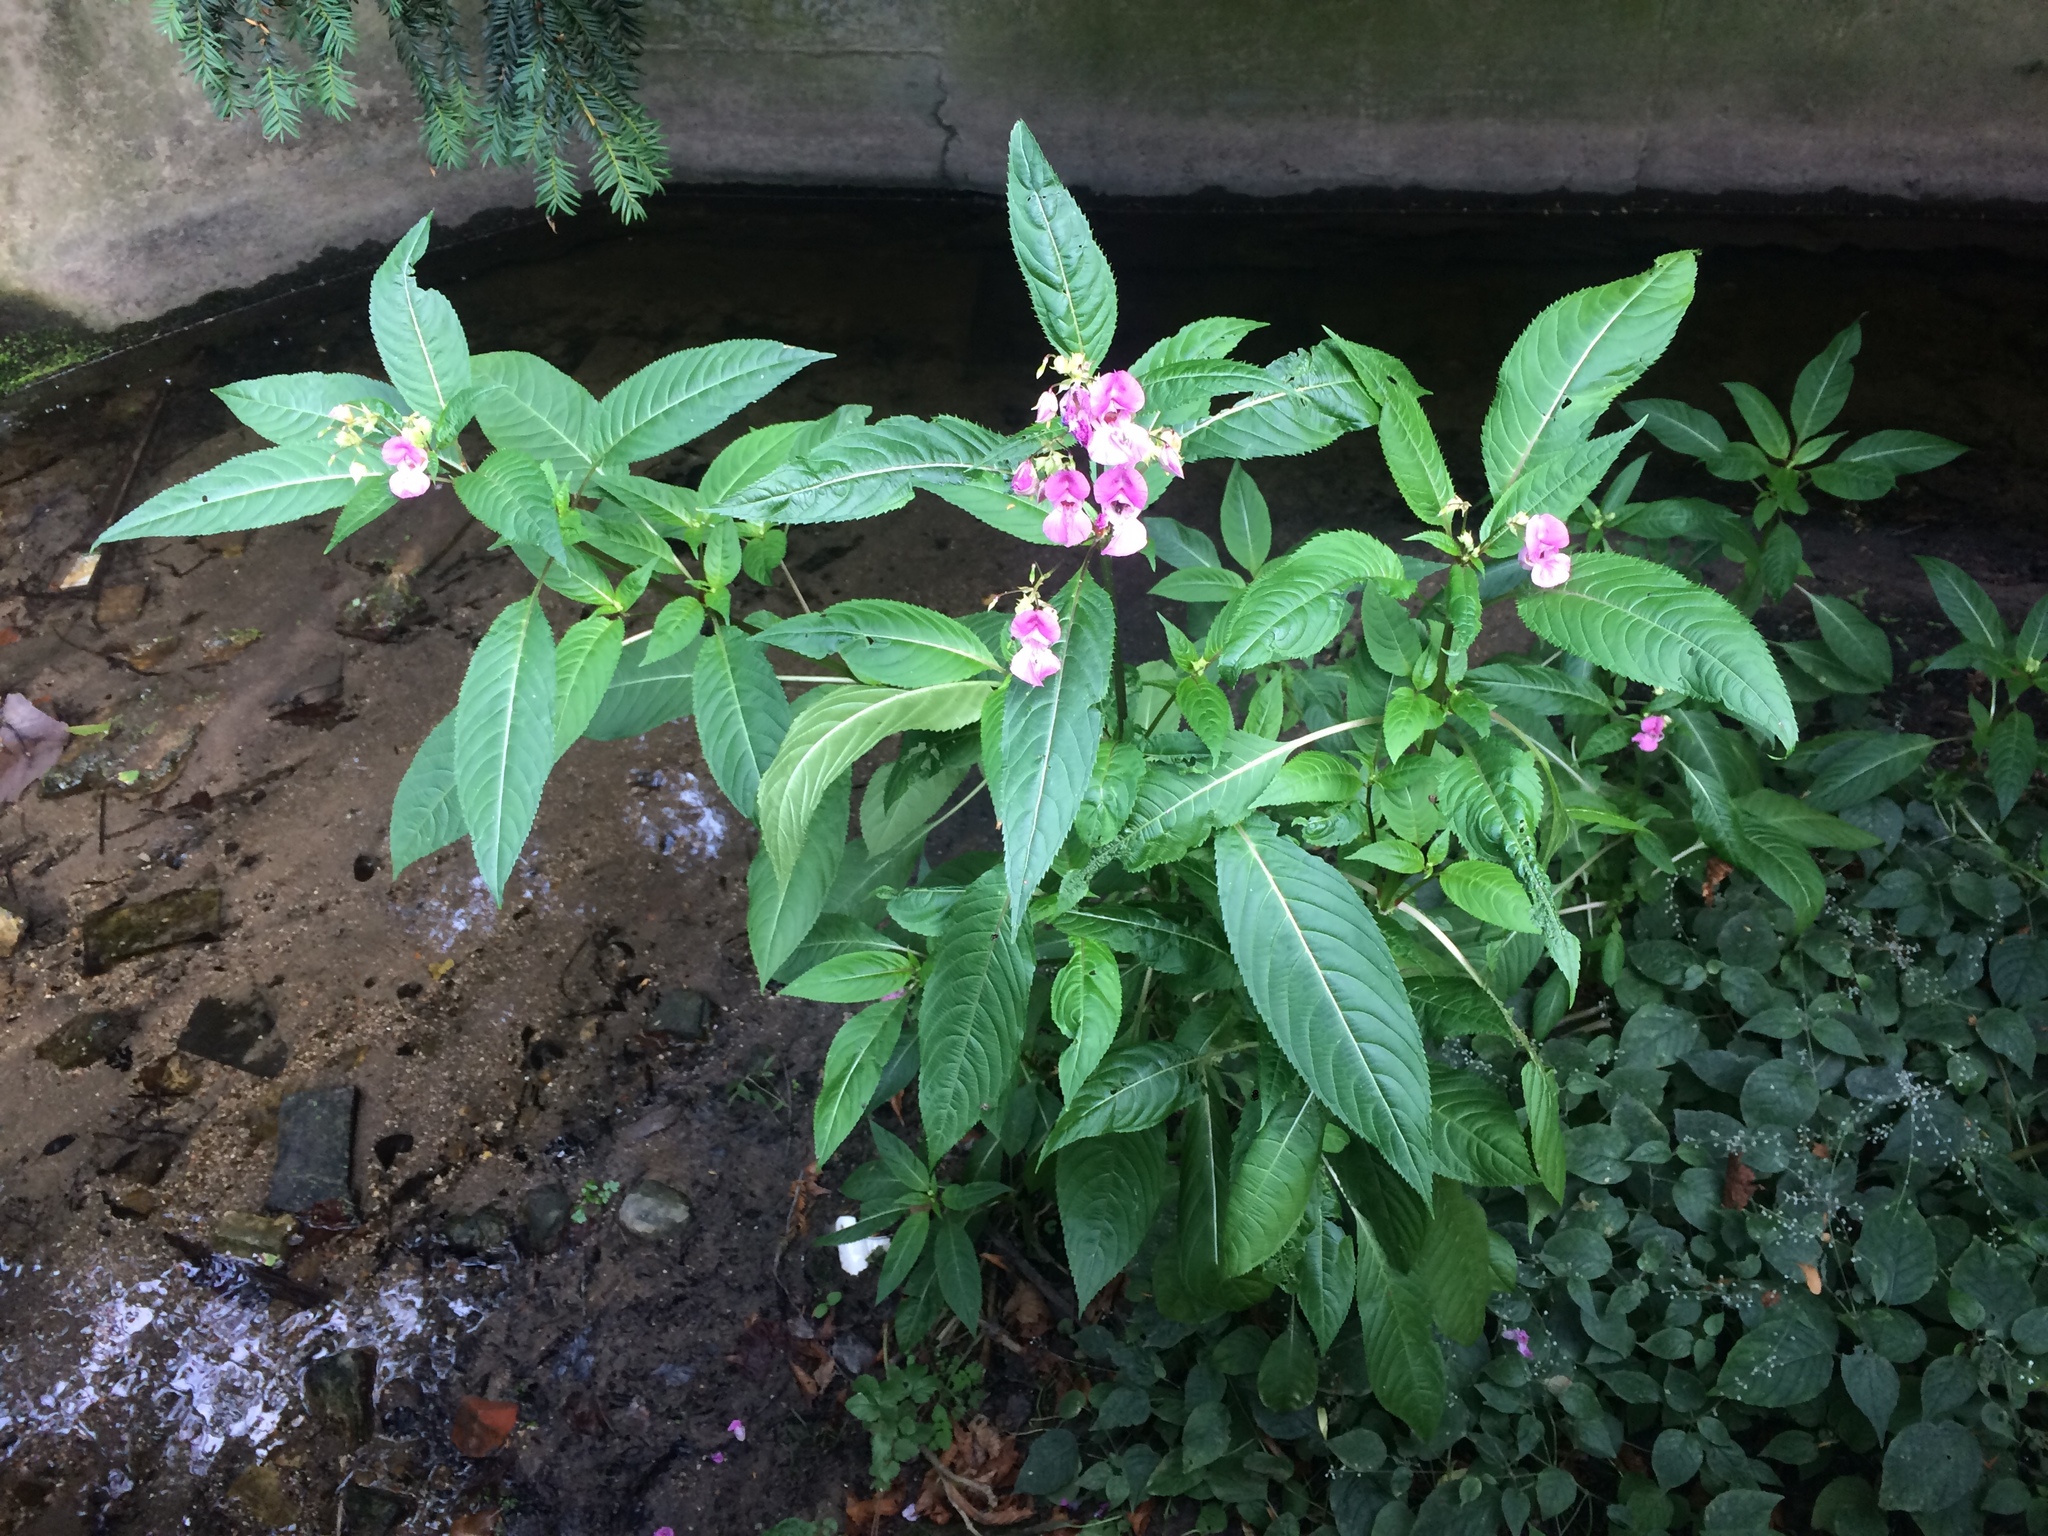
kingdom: Plantae
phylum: Tracheophyta
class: Magnoliopsida
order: Ericales
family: Balsaminaceae
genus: Impatiens
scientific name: Impatiens glandulifera
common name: Himalayan balsam
